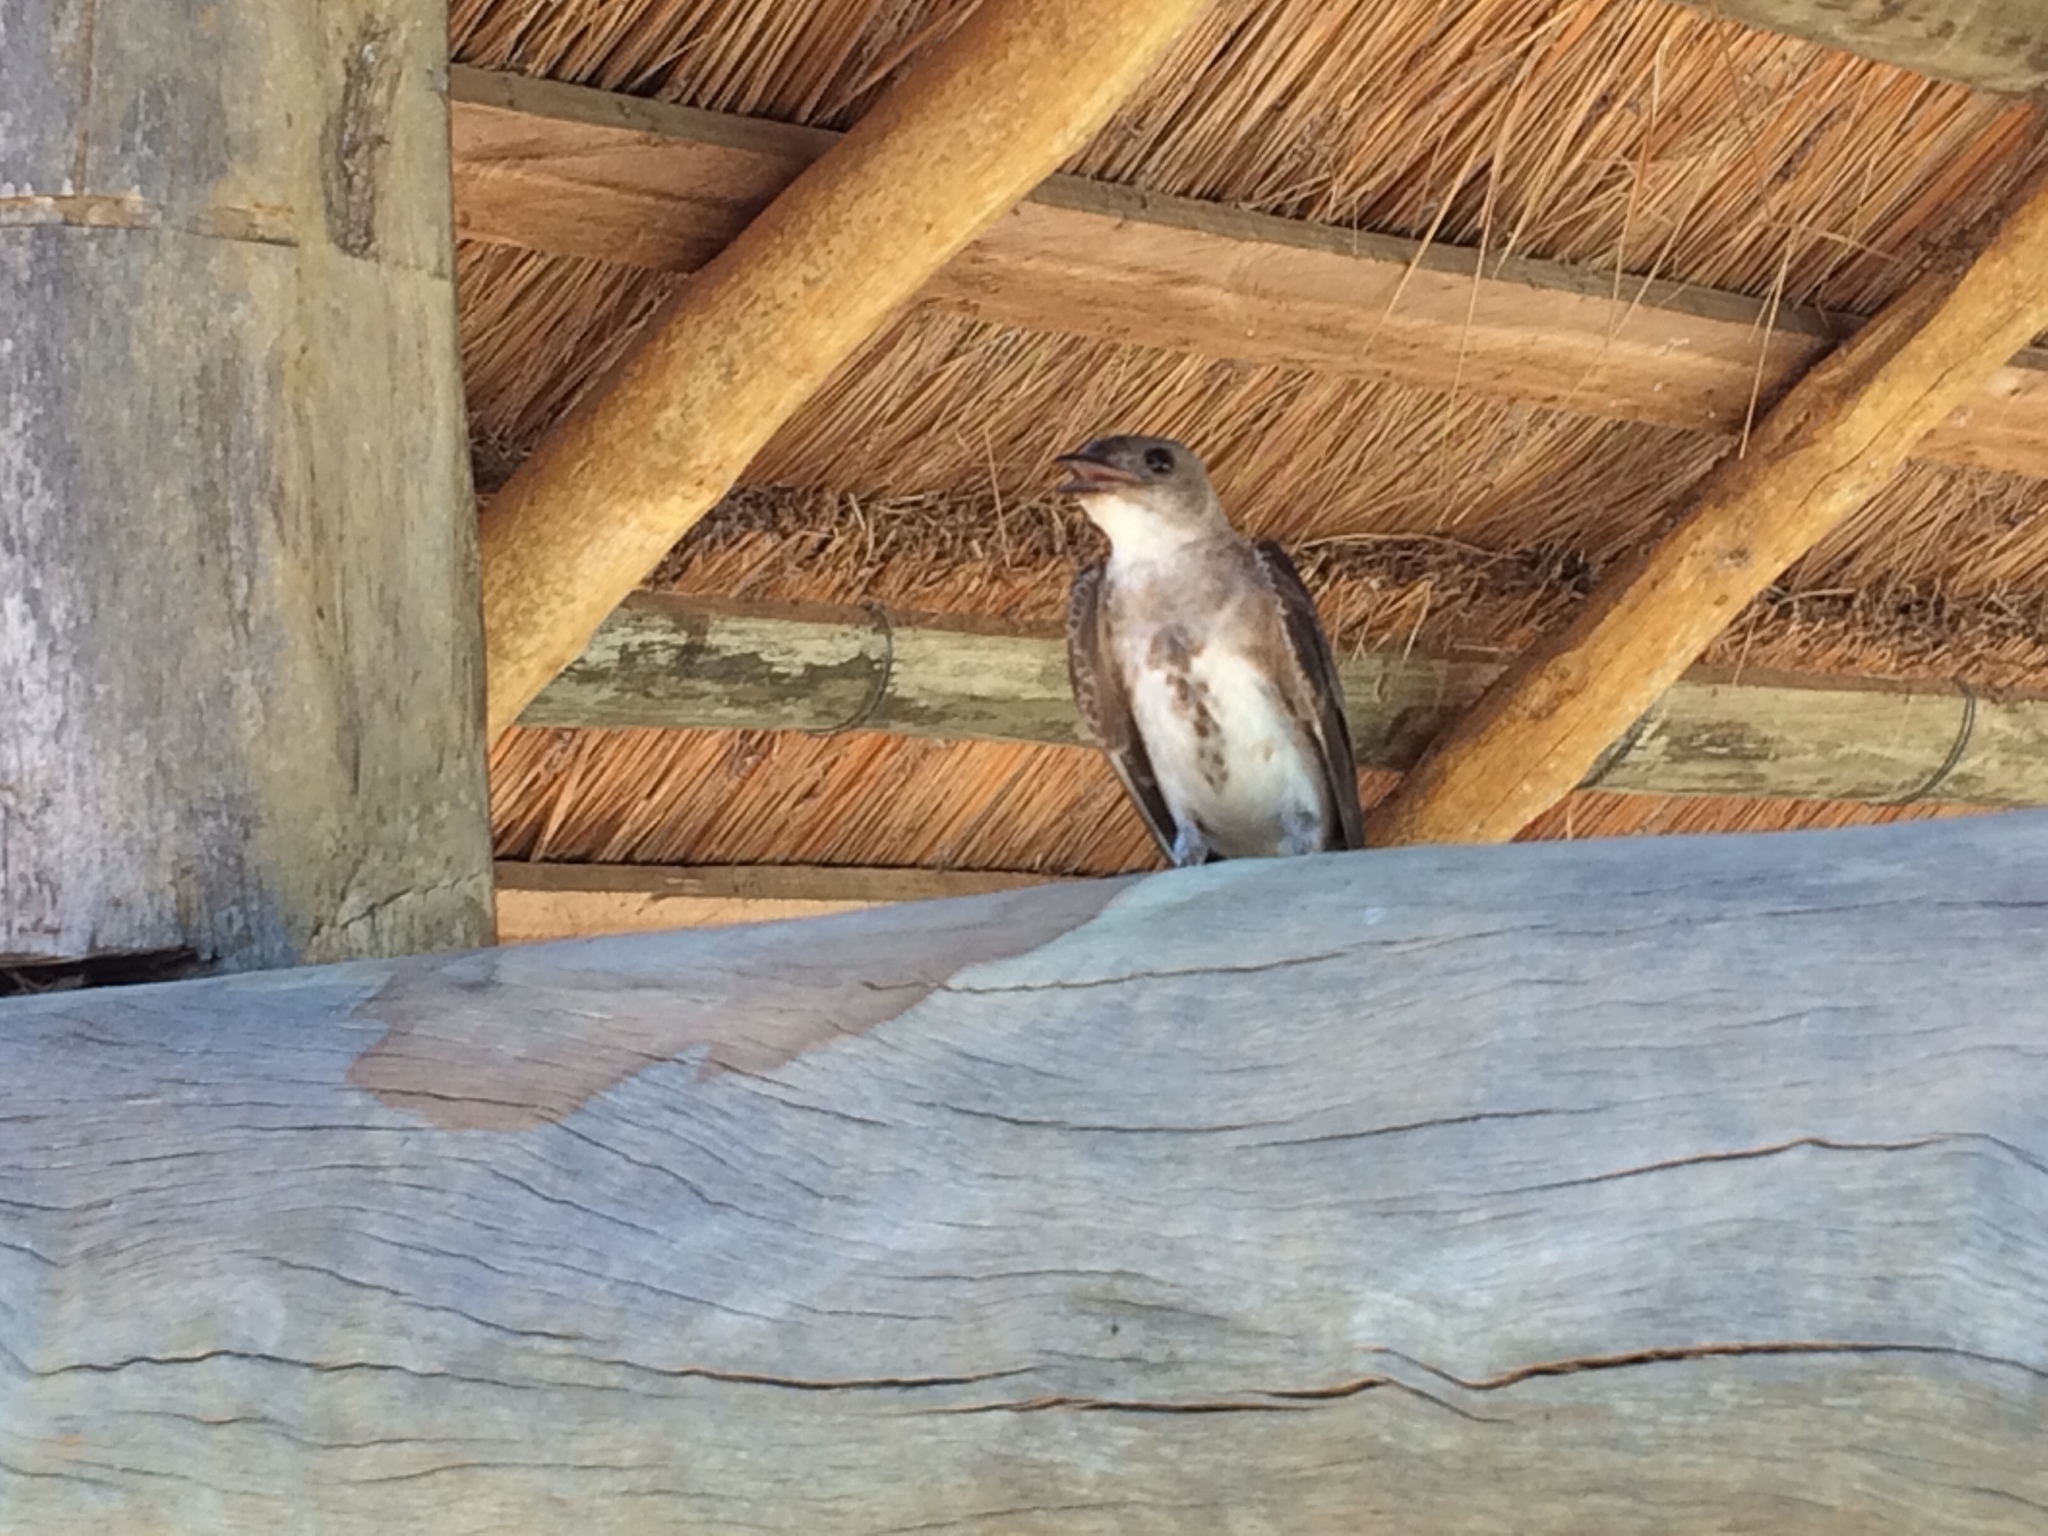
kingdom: Animalia
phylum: Chordata
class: Aves
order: Passeriformes
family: Hirundinidae
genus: Progne
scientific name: Progne tapera
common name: Brown-chested martin
